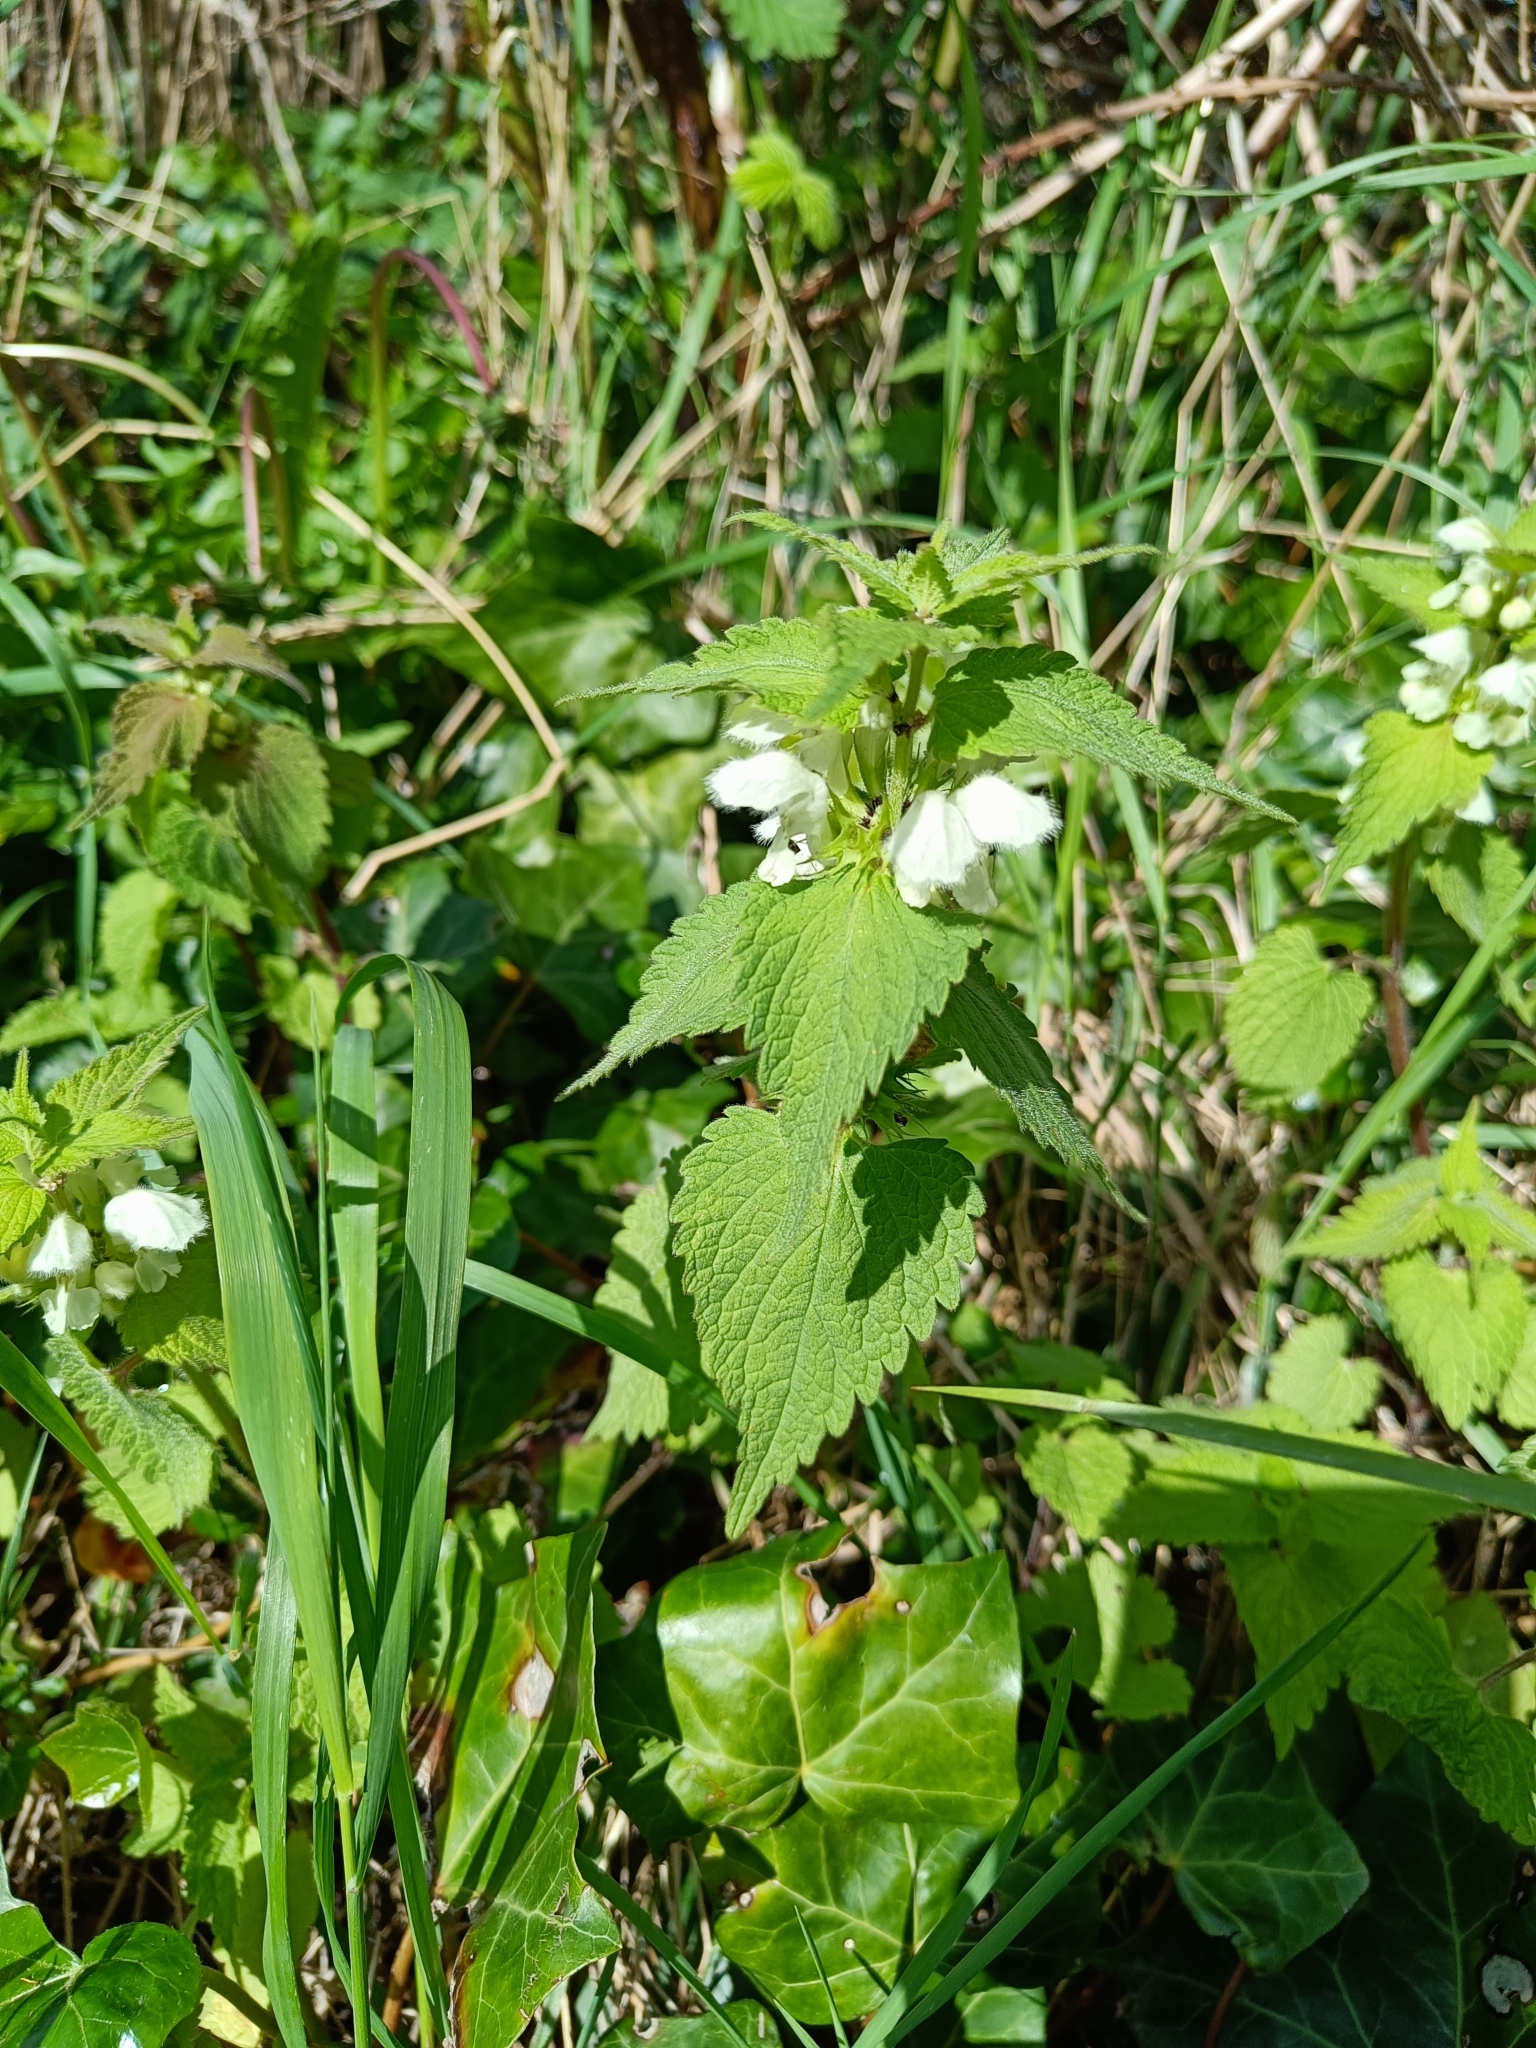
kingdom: Plantae
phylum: Tracheophyta
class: Magnoliopsida
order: Lamiales
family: Lamiaceae
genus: Lamium
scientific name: Lamium album
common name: White dead-nettle
